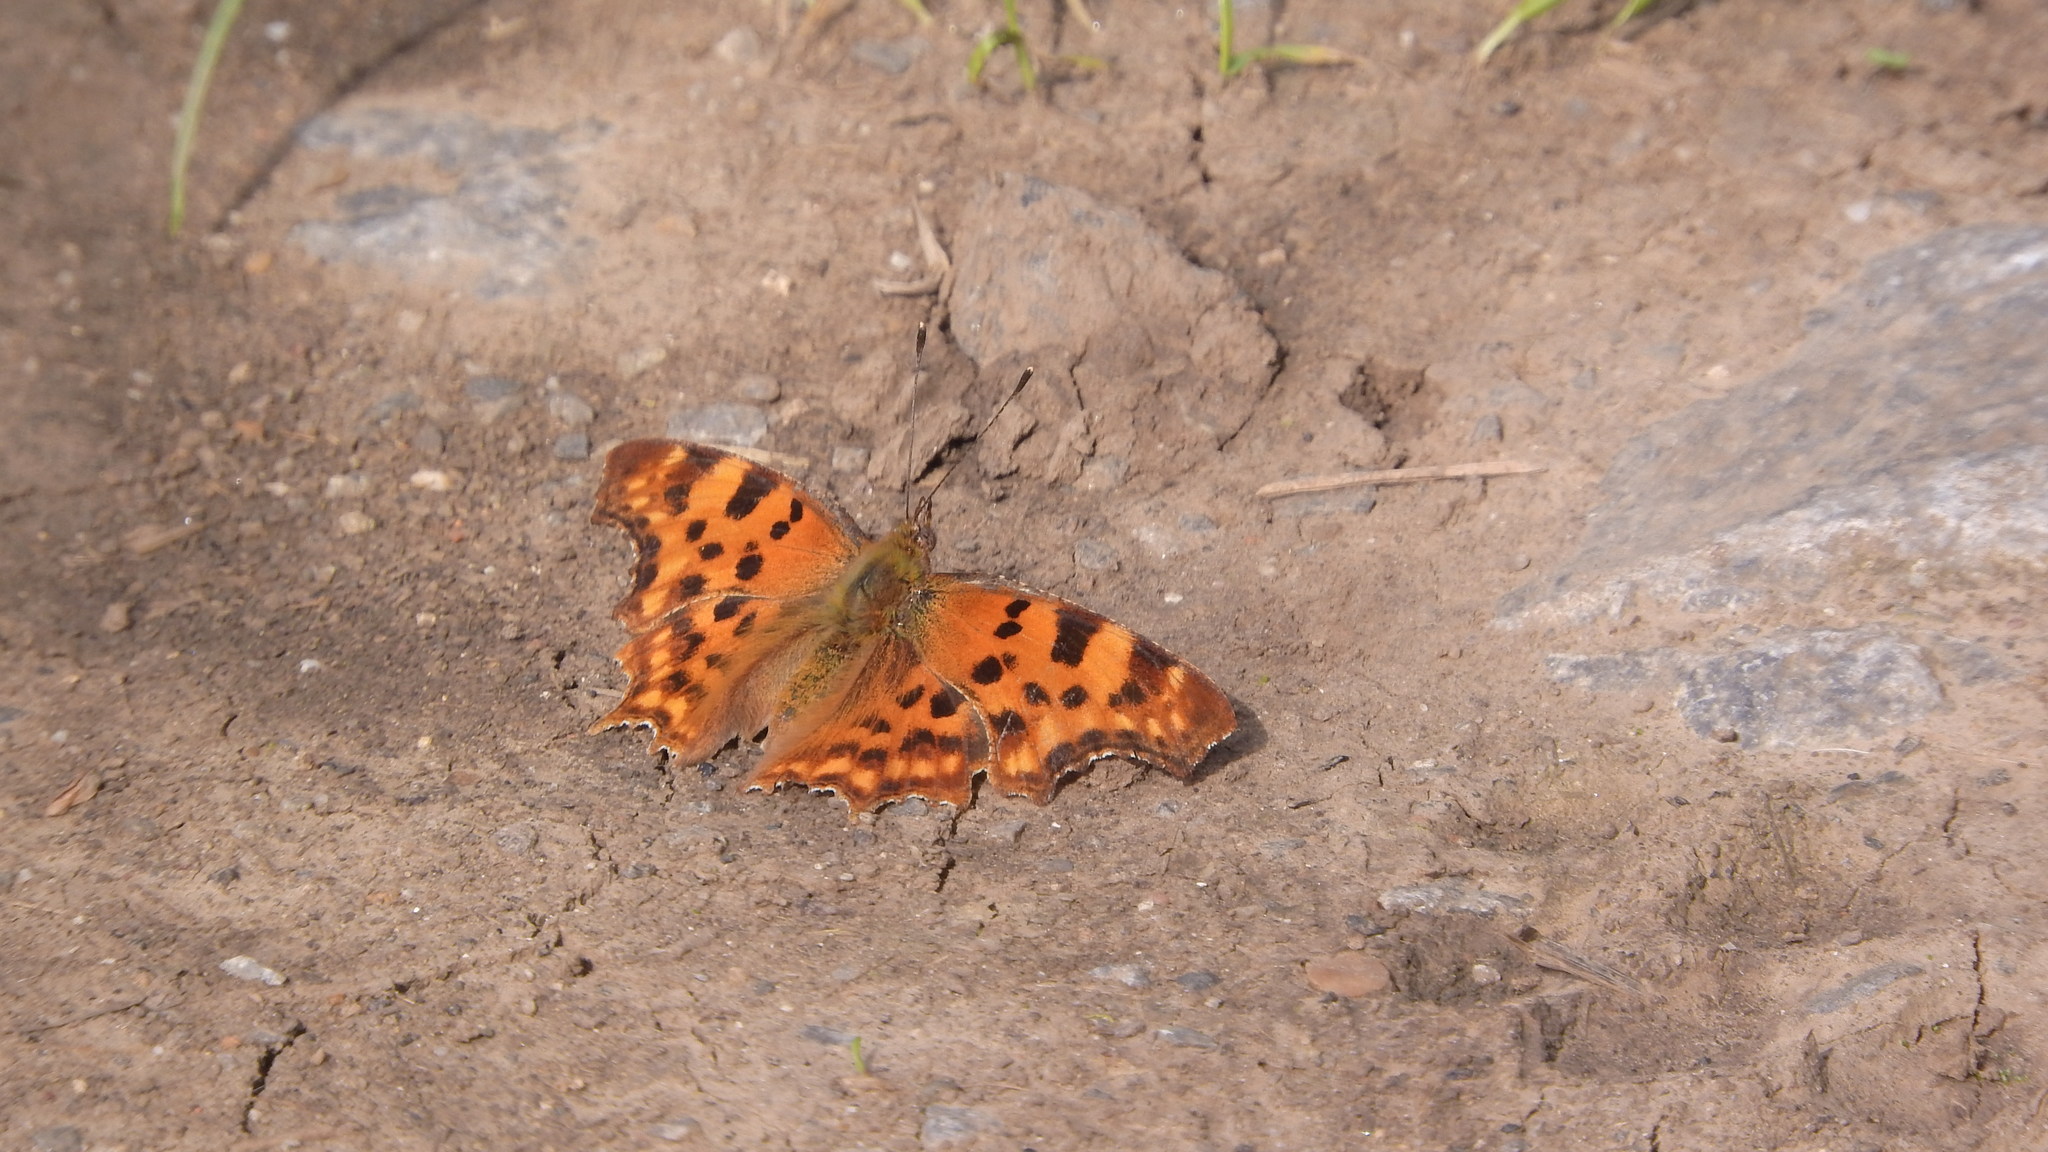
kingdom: Animalia
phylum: Arthropoda
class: Insecta
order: Lepidoptera
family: Nymphalidae
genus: Polygonia
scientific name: Polygonia c-album
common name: Comma
